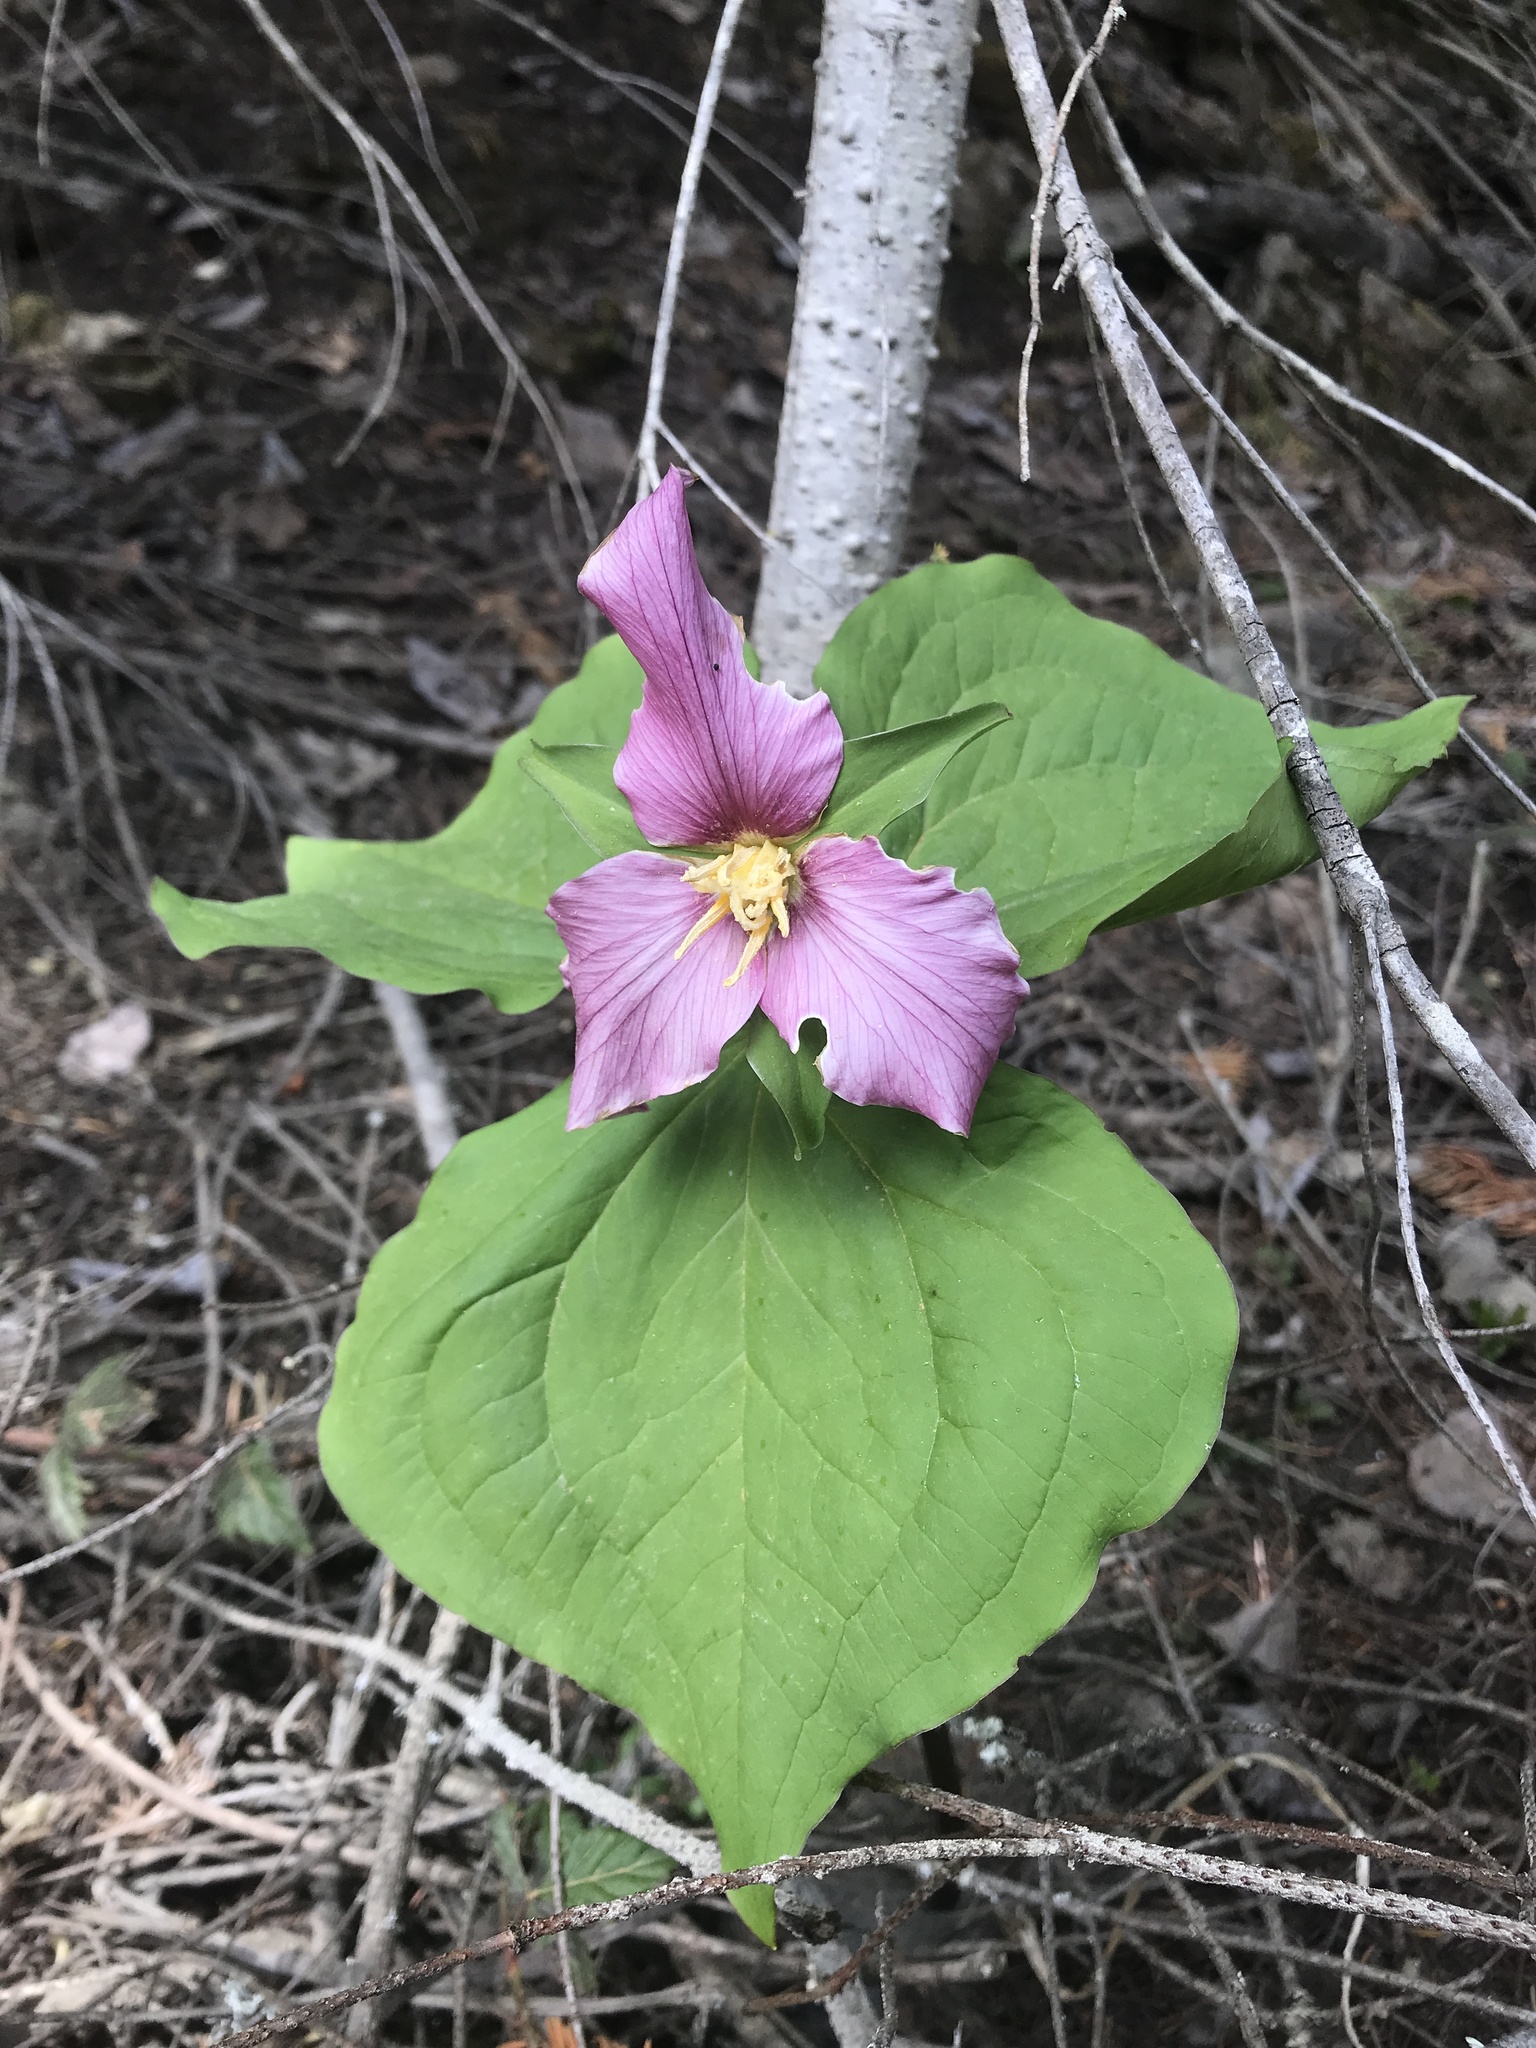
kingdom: Plantae
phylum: Tracheophyta
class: Liliopsida
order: Liliales
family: Melanthiaceae
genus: Trillium
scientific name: Trillium ovatum
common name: Pacific trillium
